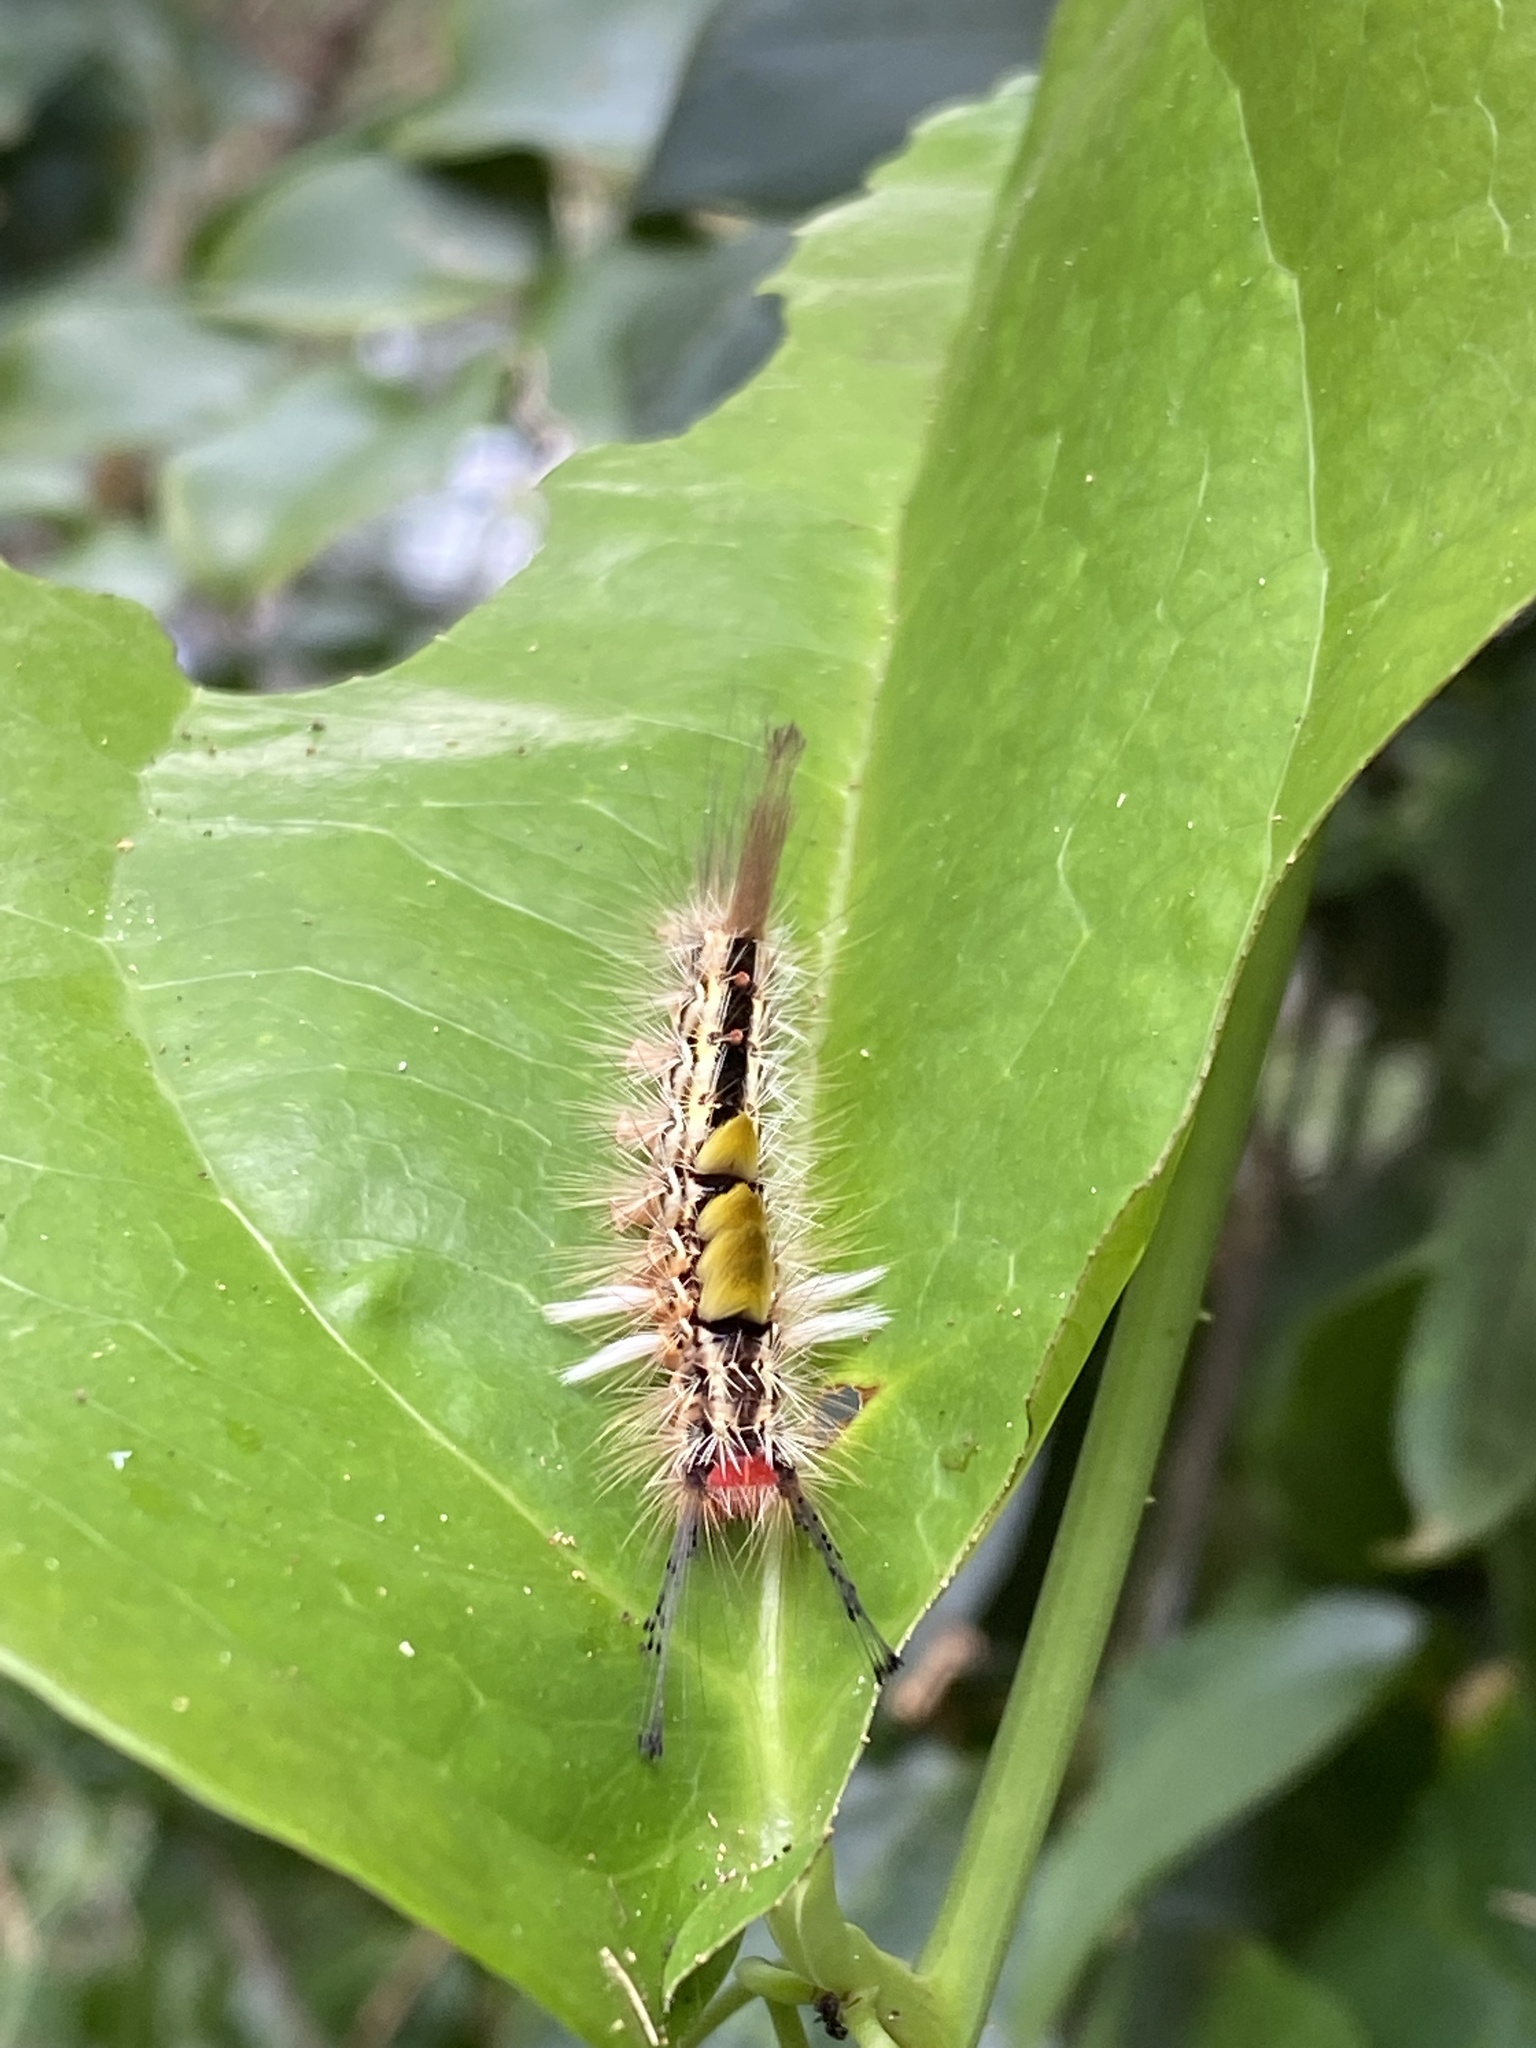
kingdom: Animalia
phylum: Arthropoda
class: Insecta
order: Lepidoptera
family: Erebidae
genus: Orgyia
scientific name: Orgyia australis
